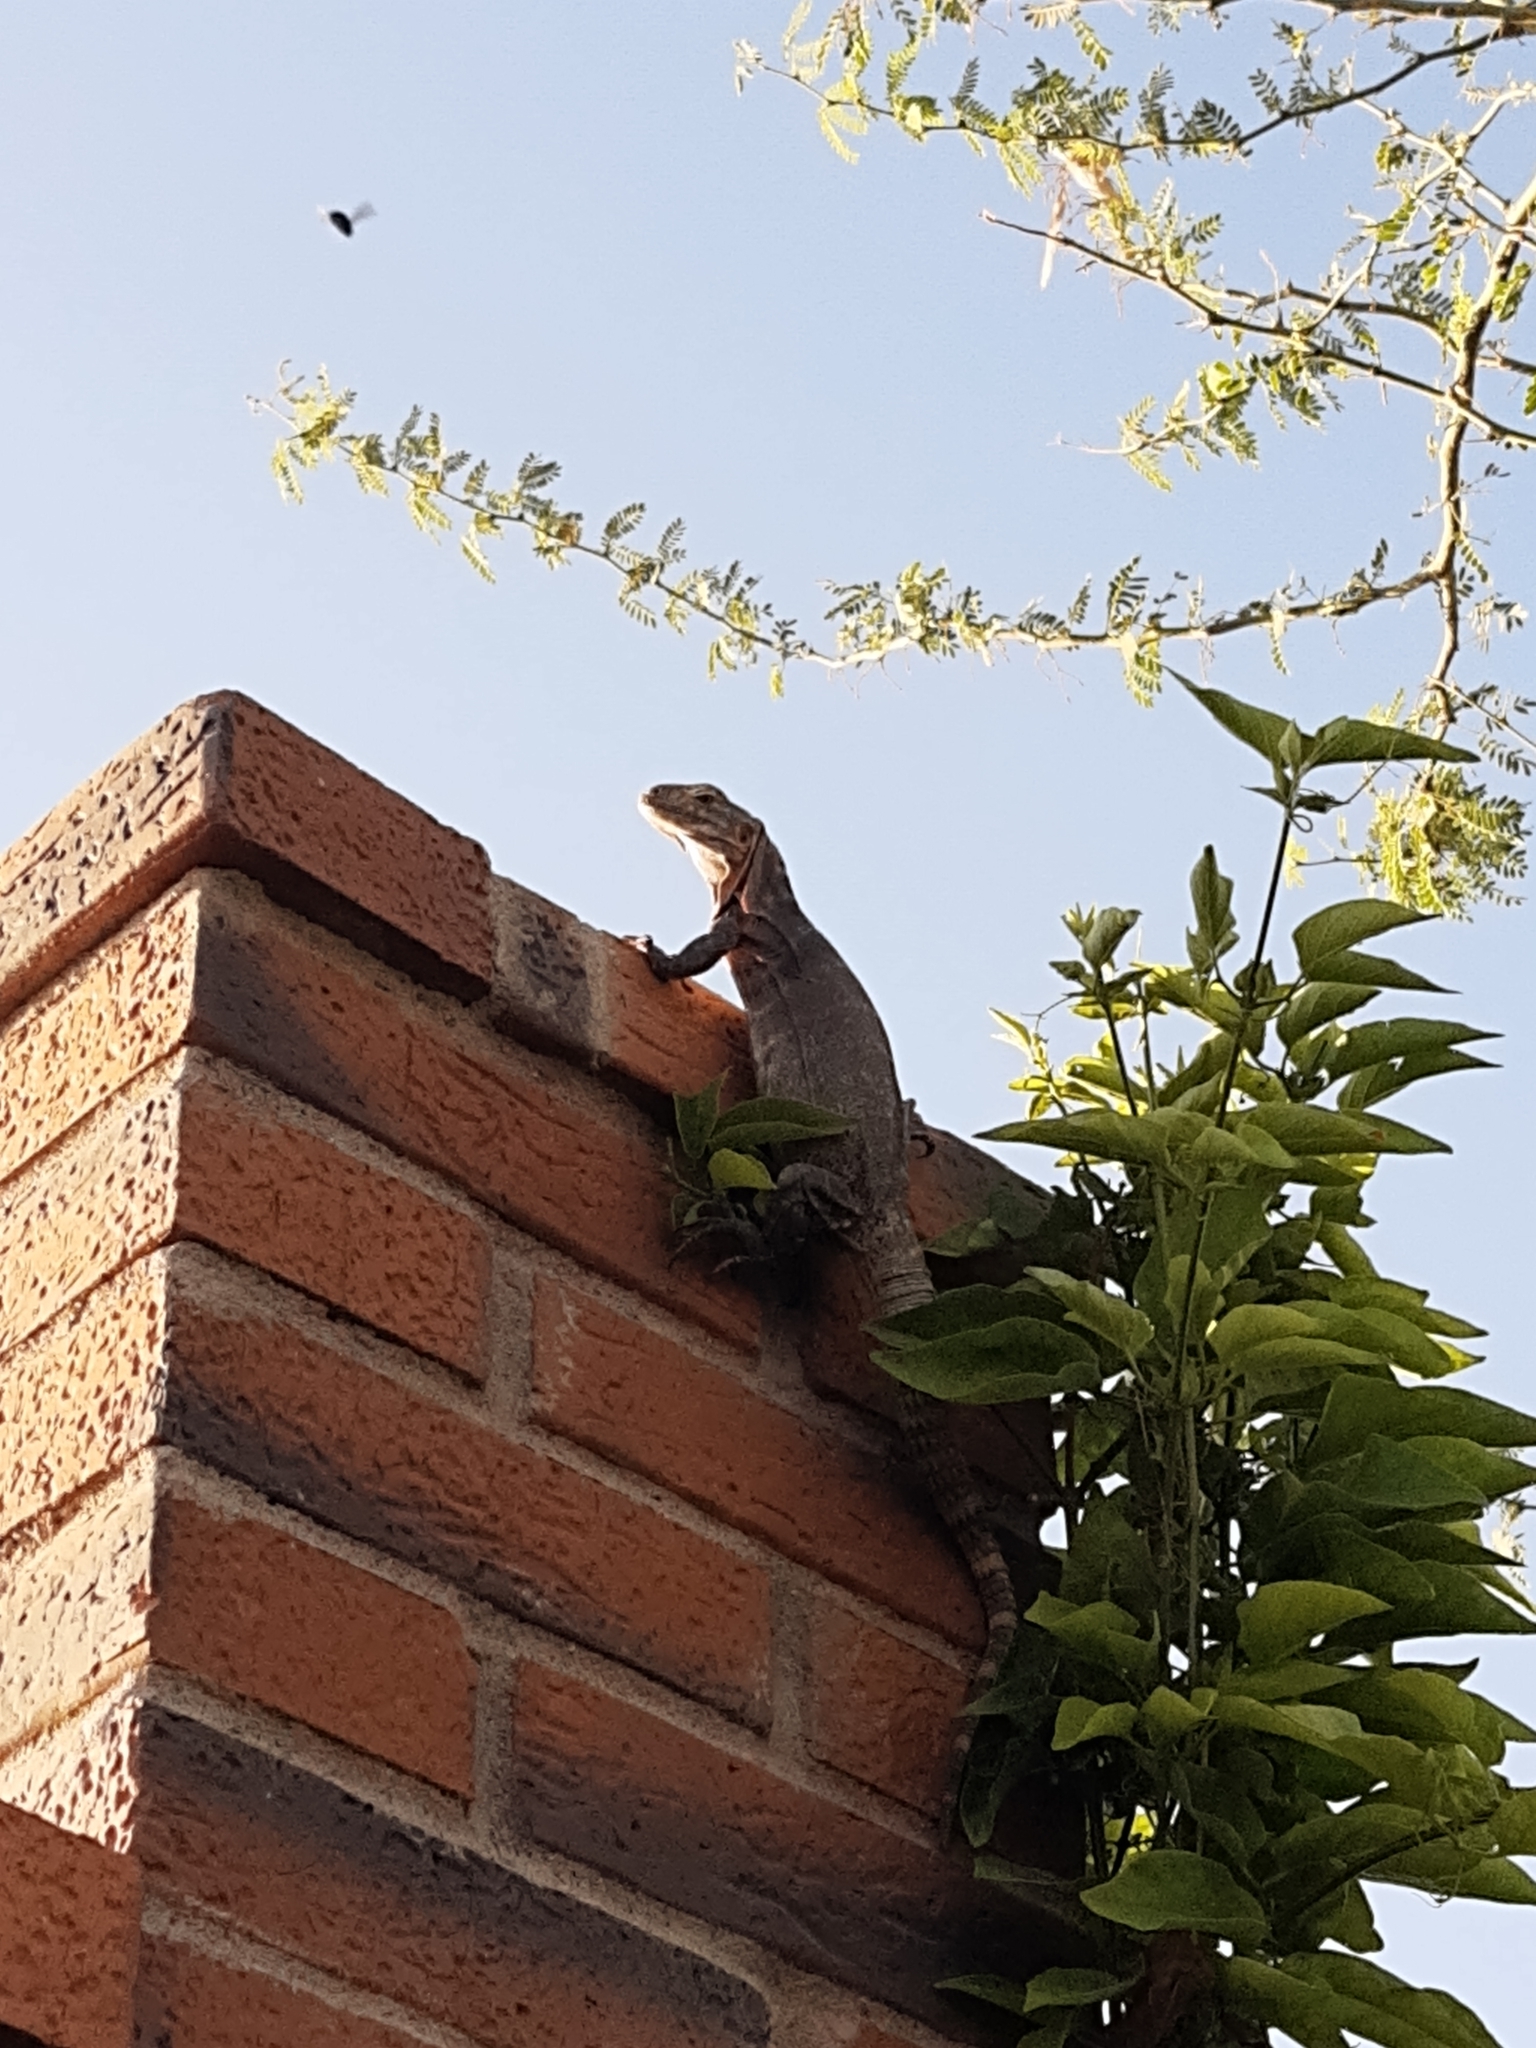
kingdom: Animalia
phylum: Chordata
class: Squamata
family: Iguanidae
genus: Ctenosaura
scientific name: Ctenosaura macrolopha
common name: Cape spinytail iguana
